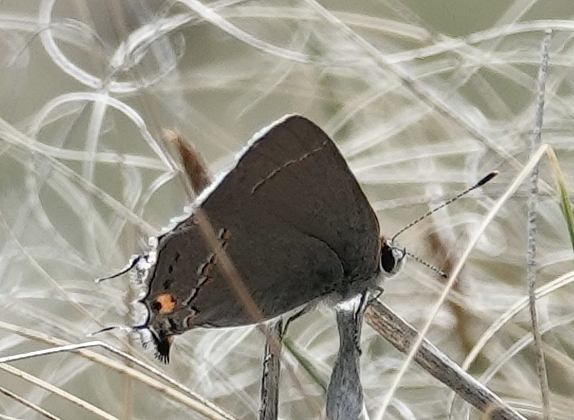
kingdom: Animalia
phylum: Arthropoda
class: Insecta
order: Lepidoptera
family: Lycaenidae
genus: Strymon
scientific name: Strymon melinus
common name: Gray hairstreak
